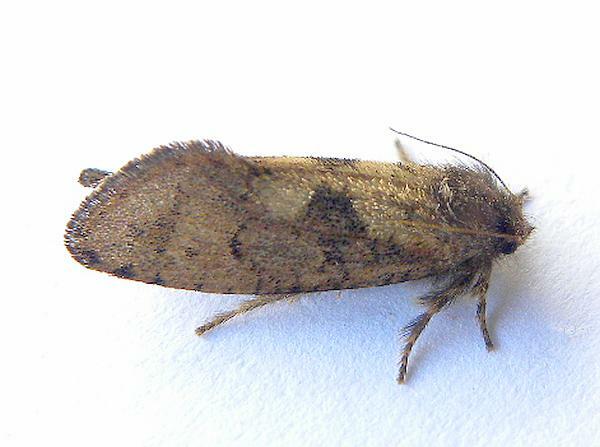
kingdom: Animalia
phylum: Arthropoda
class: Insecta
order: Lepidoptera
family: Tineidae
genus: Acrolophus
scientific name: Acrolophus mora
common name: Dark acrolophus
